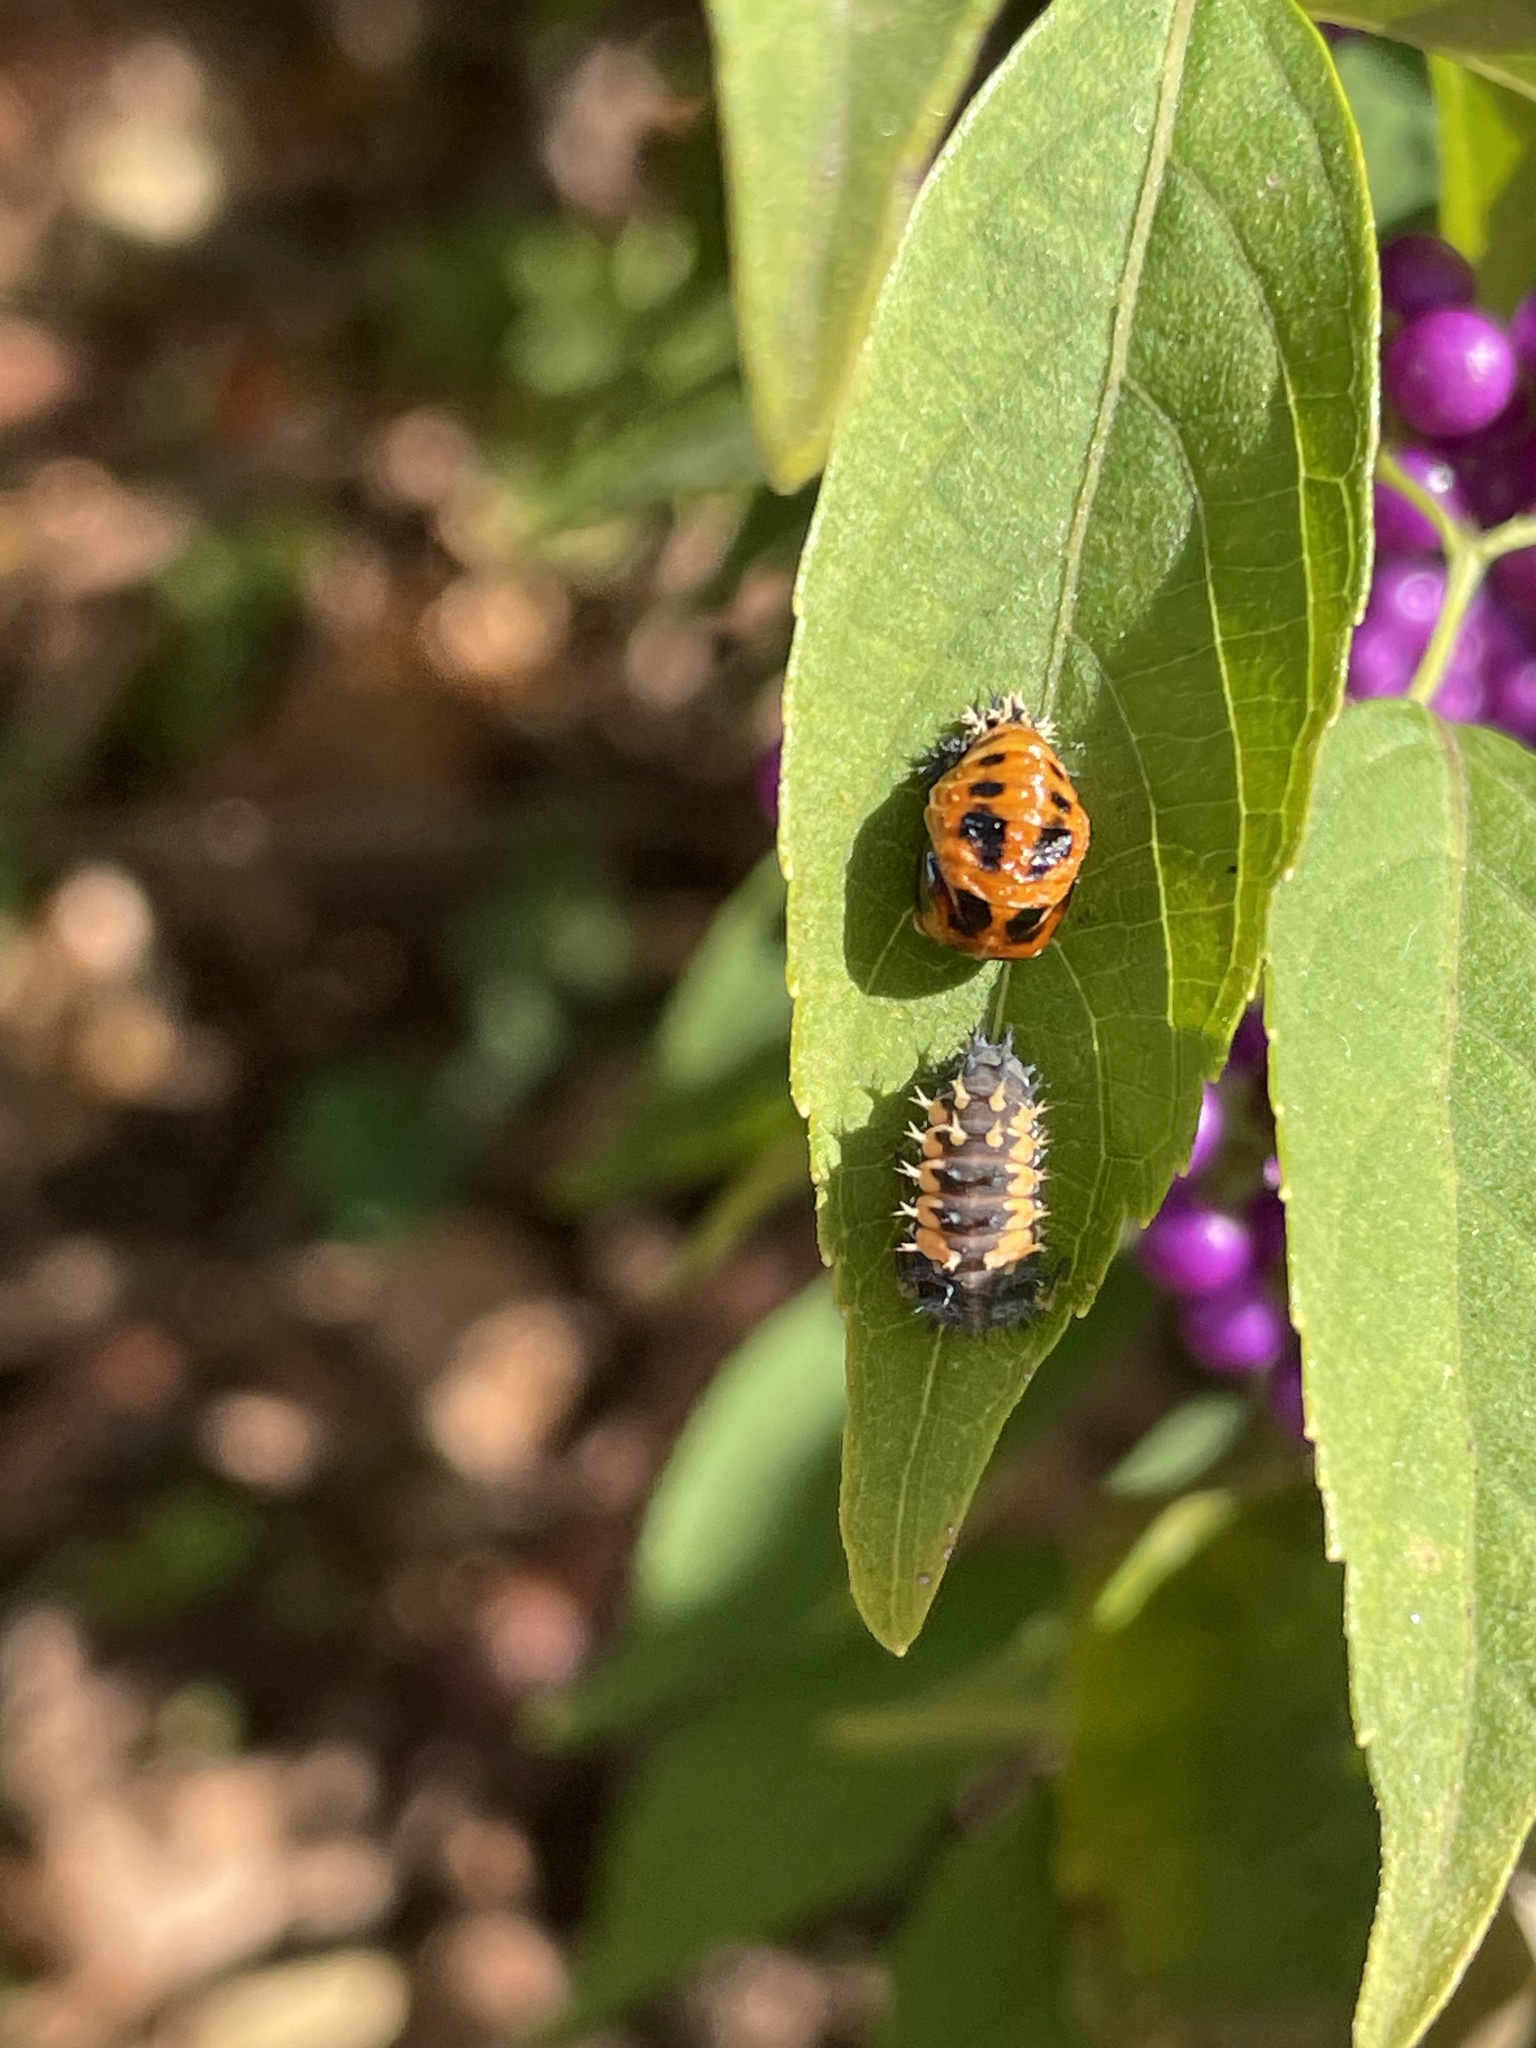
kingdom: Animalia
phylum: Arthropoda
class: Insecta
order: Coleoptera
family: Coccinellidae
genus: Harmonia
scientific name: Harmonia axyridis
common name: Harlequin ladybird
